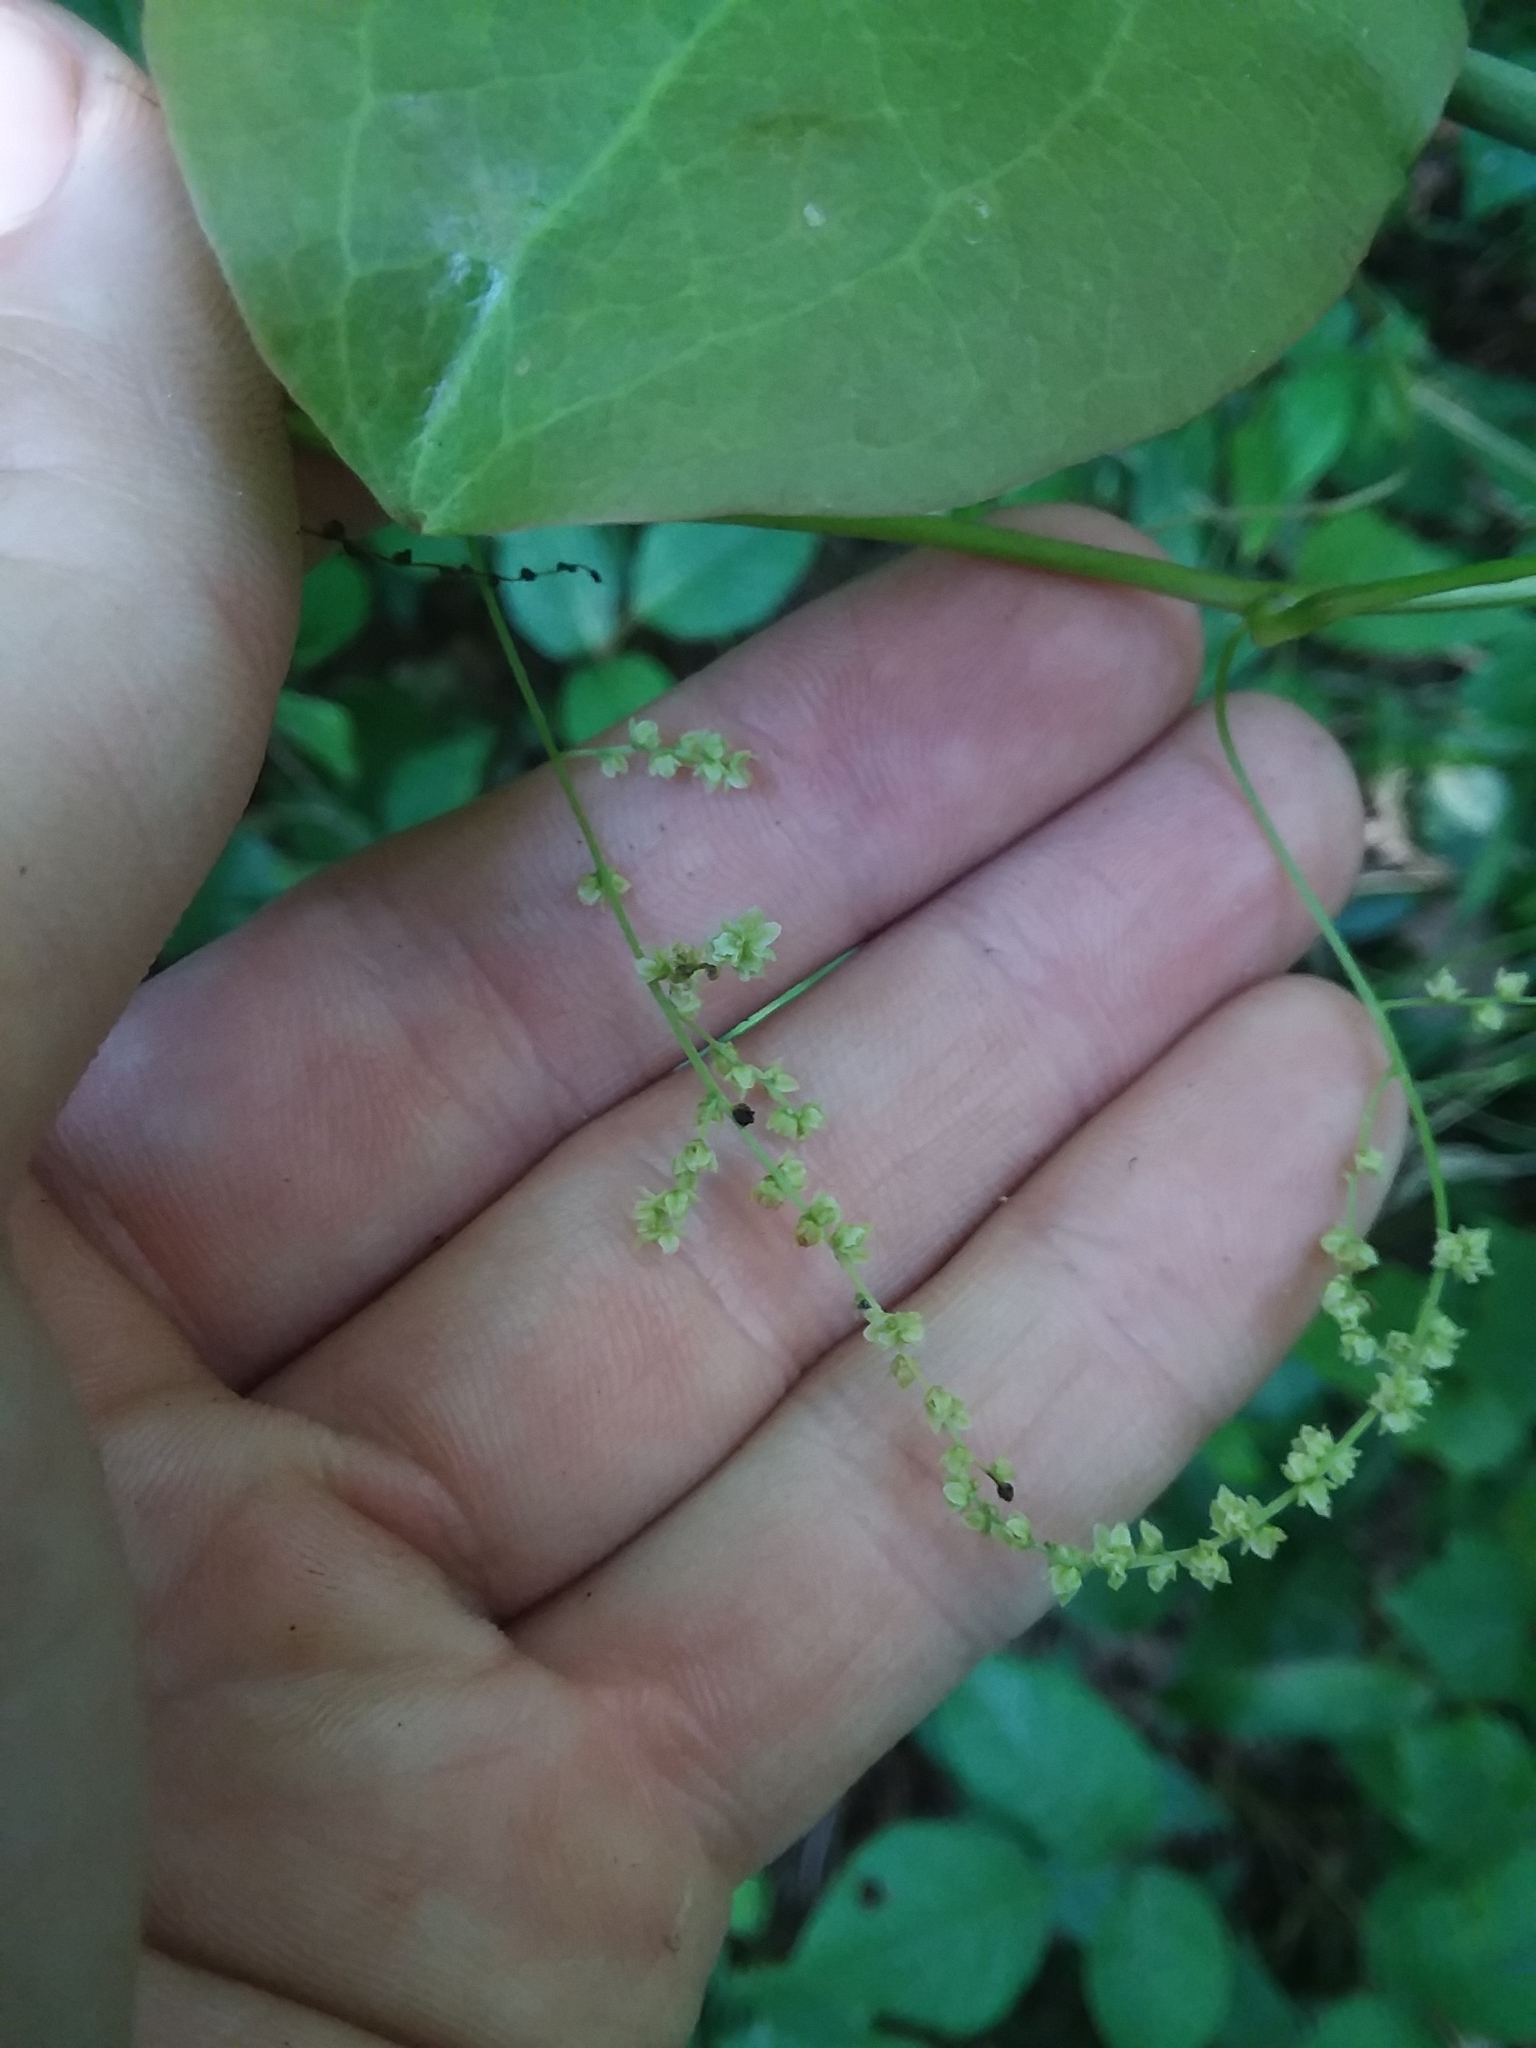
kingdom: Plantae
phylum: Tracheophyta
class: Liliopsida
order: Dioscoreales
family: Dioscoreaceae
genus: Dioscorea
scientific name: Dioscorea villosa
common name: Wild yam
